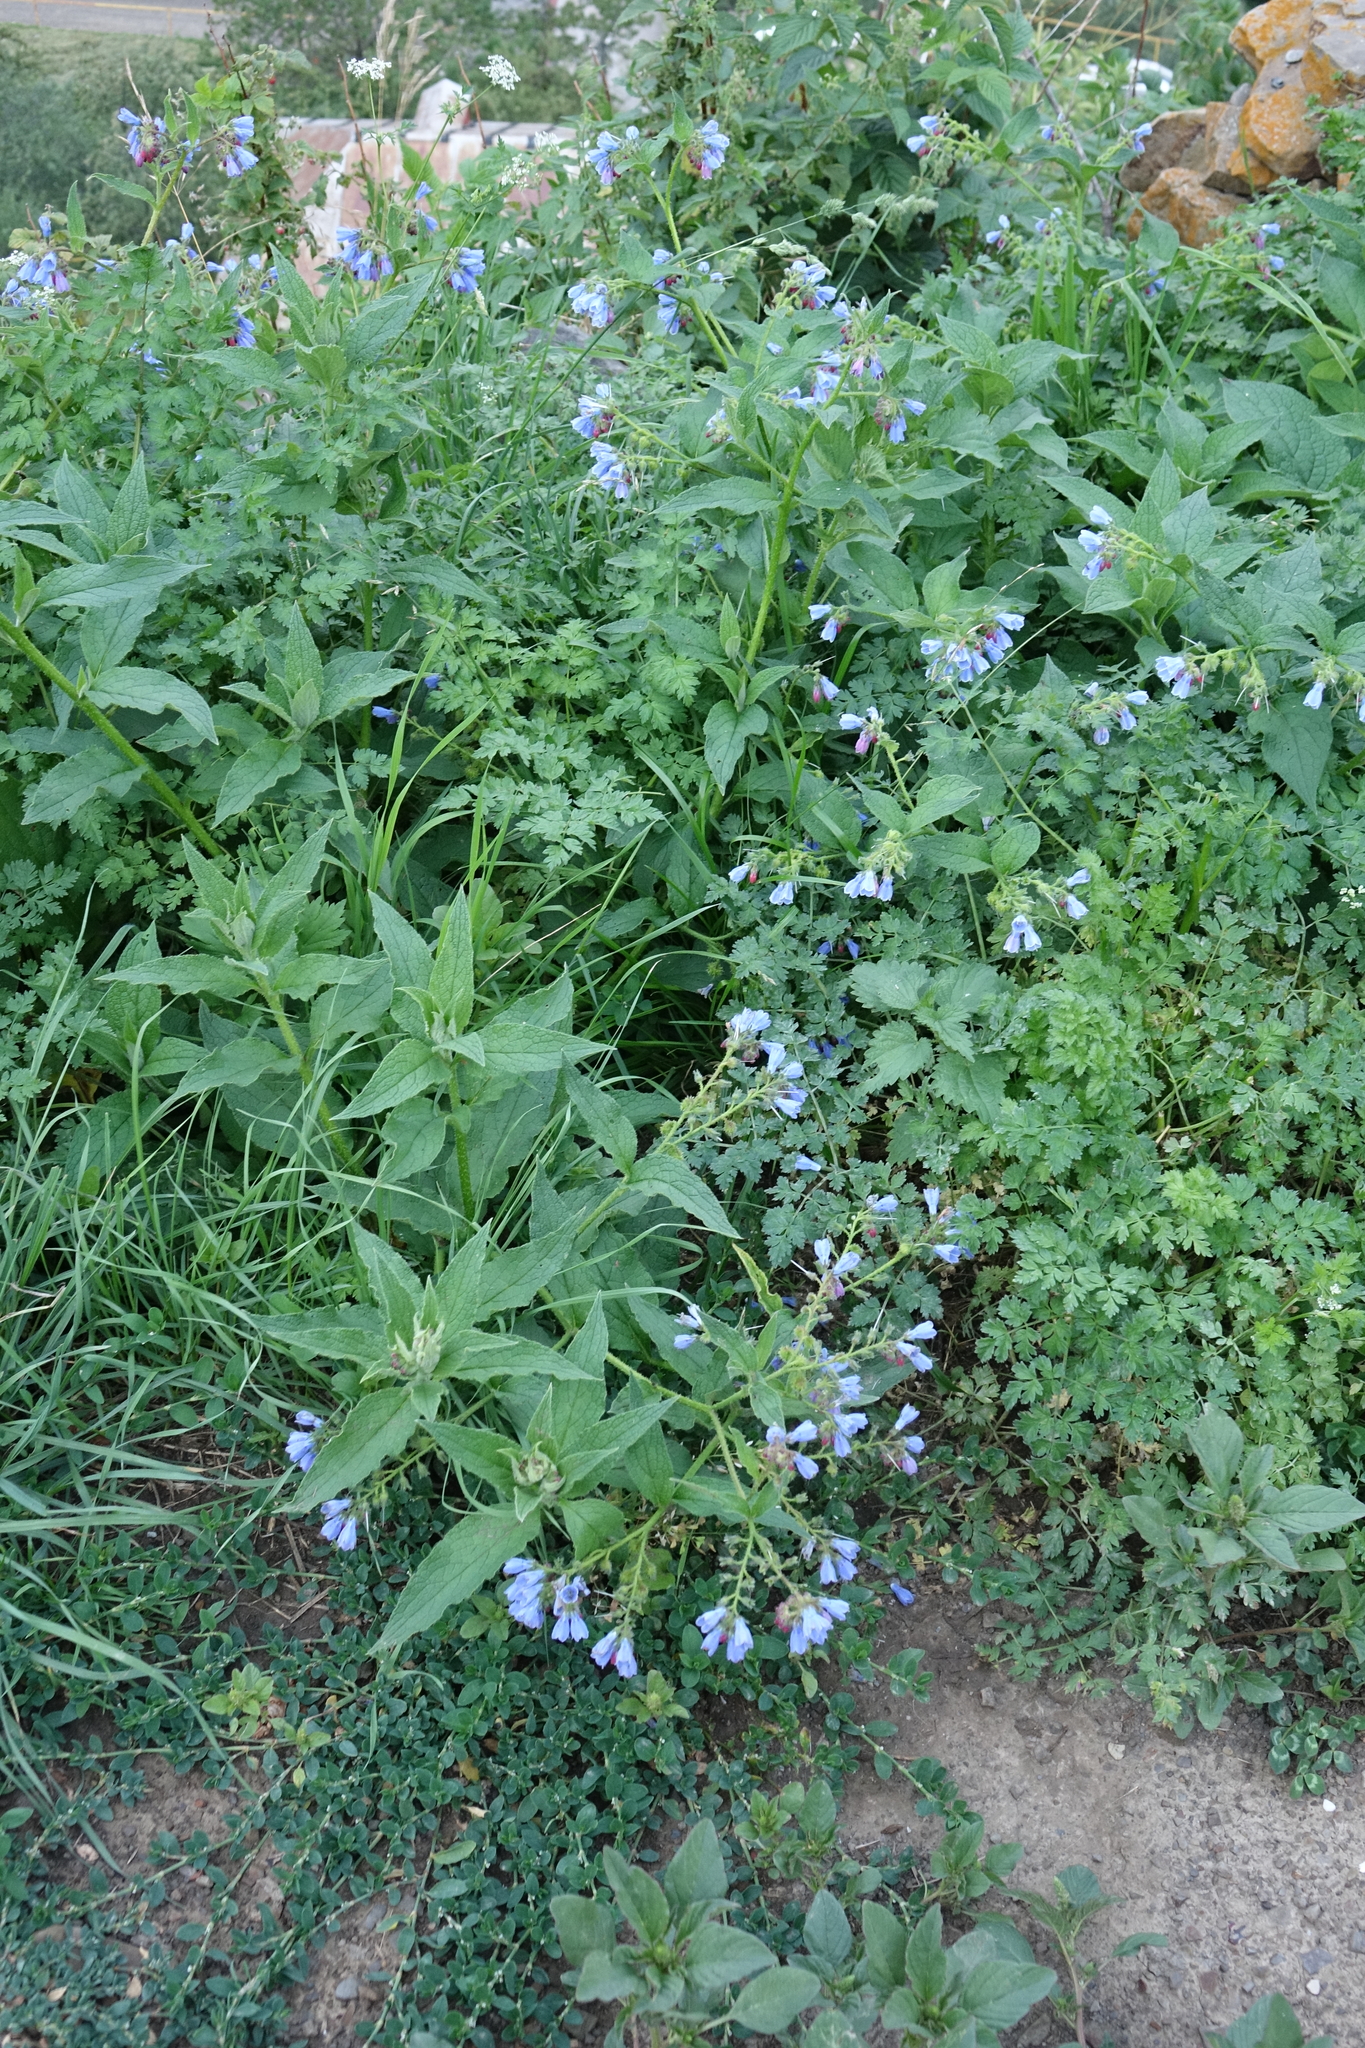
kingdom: Plantae
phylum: Tracheophyta
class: Magnoliopsida
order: Boraginales
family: Boraginaceae
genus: Symphytum
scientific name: Symphytum asperum
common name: Prickly comfrey
